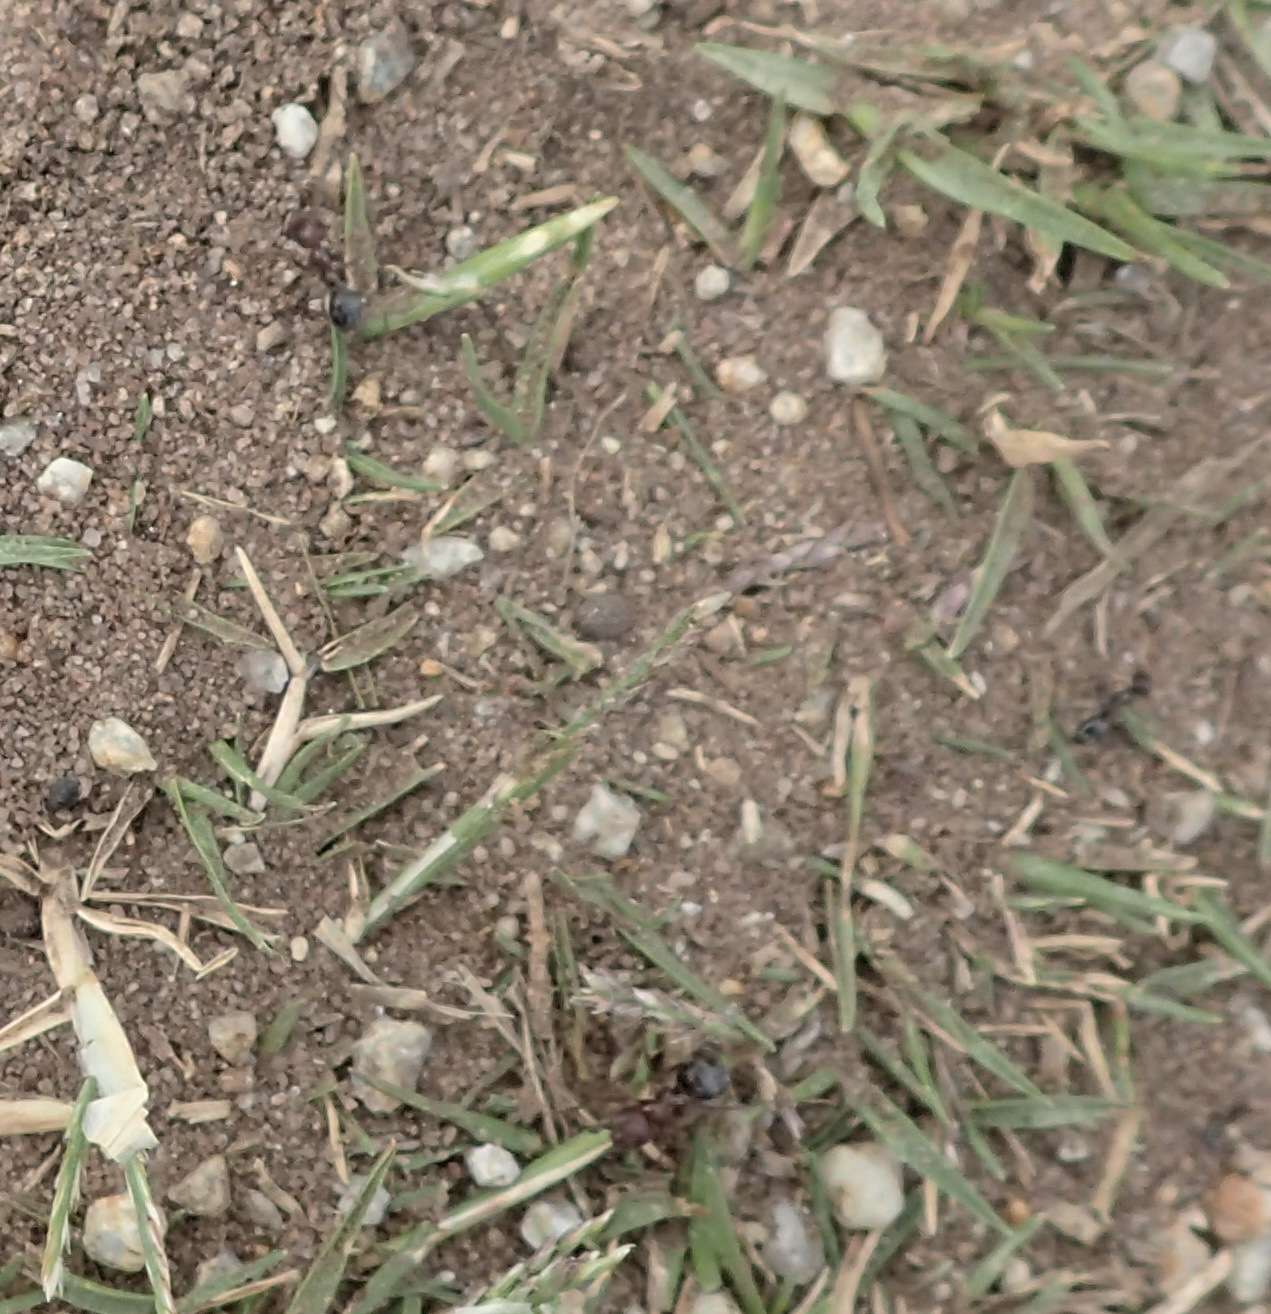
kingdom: Animalia
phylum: Arthropoda
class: Insecta
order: Hymenoptera
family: Formicidae
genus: Anoplolepis
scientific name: Anoplolepis steingroeveri
